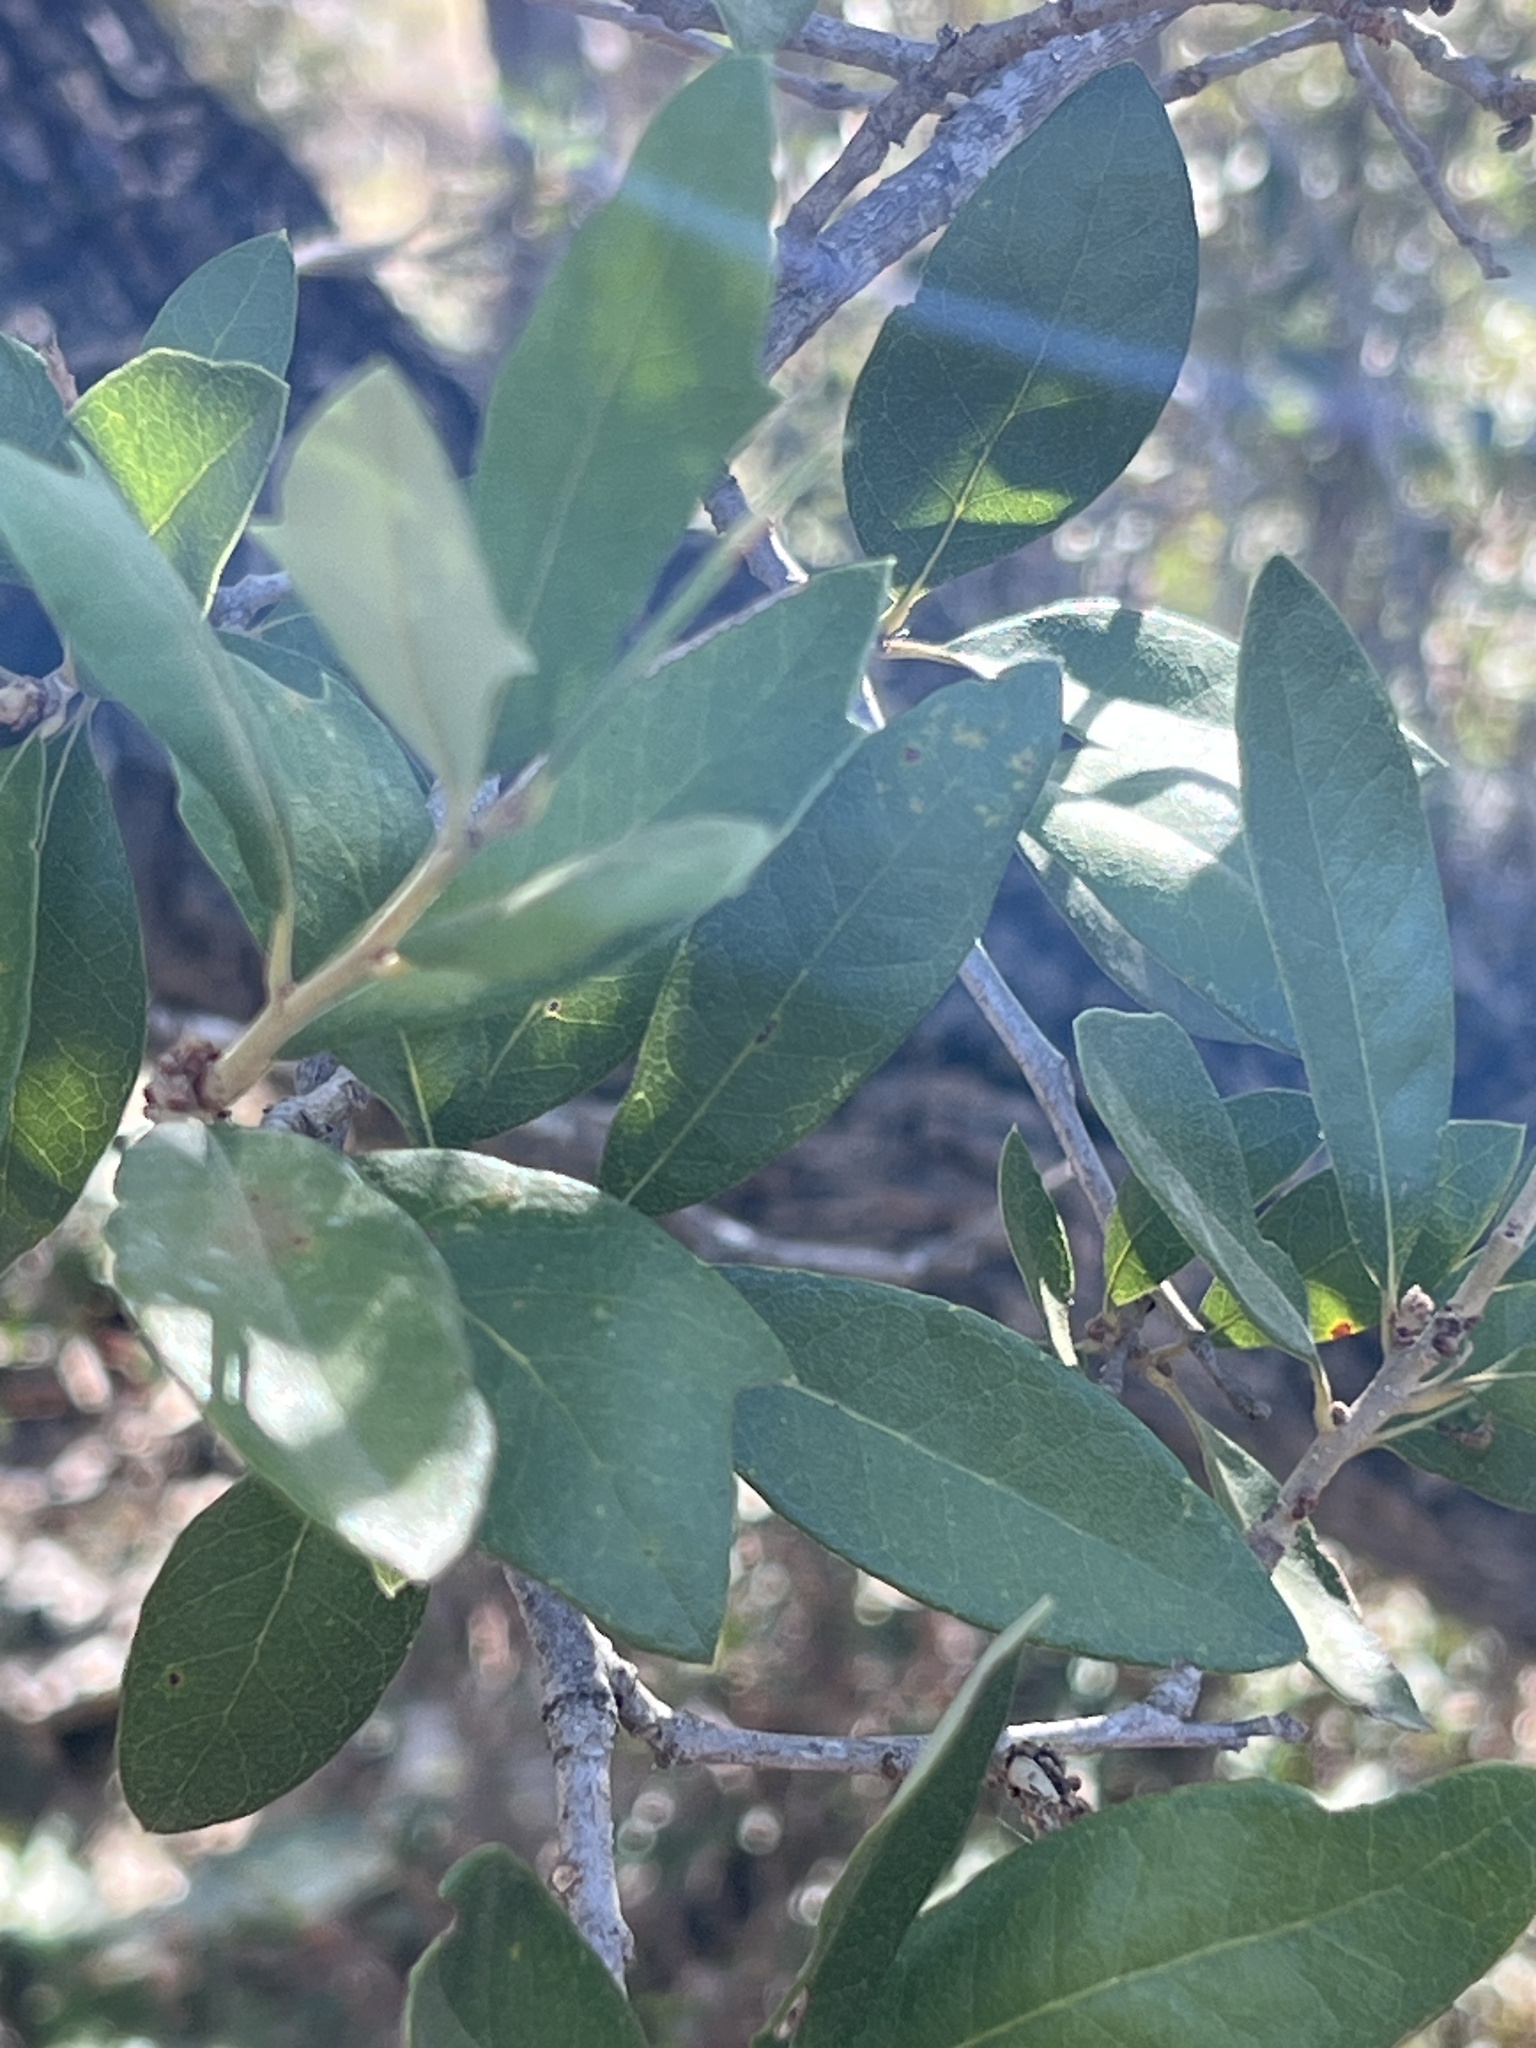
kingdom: Plantae
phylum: Tracheophyta
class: Magnoliopsida
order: Fagales
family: Fagaceae
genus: Quercus
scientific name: Quercus fusiformis
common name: Texas live oak
